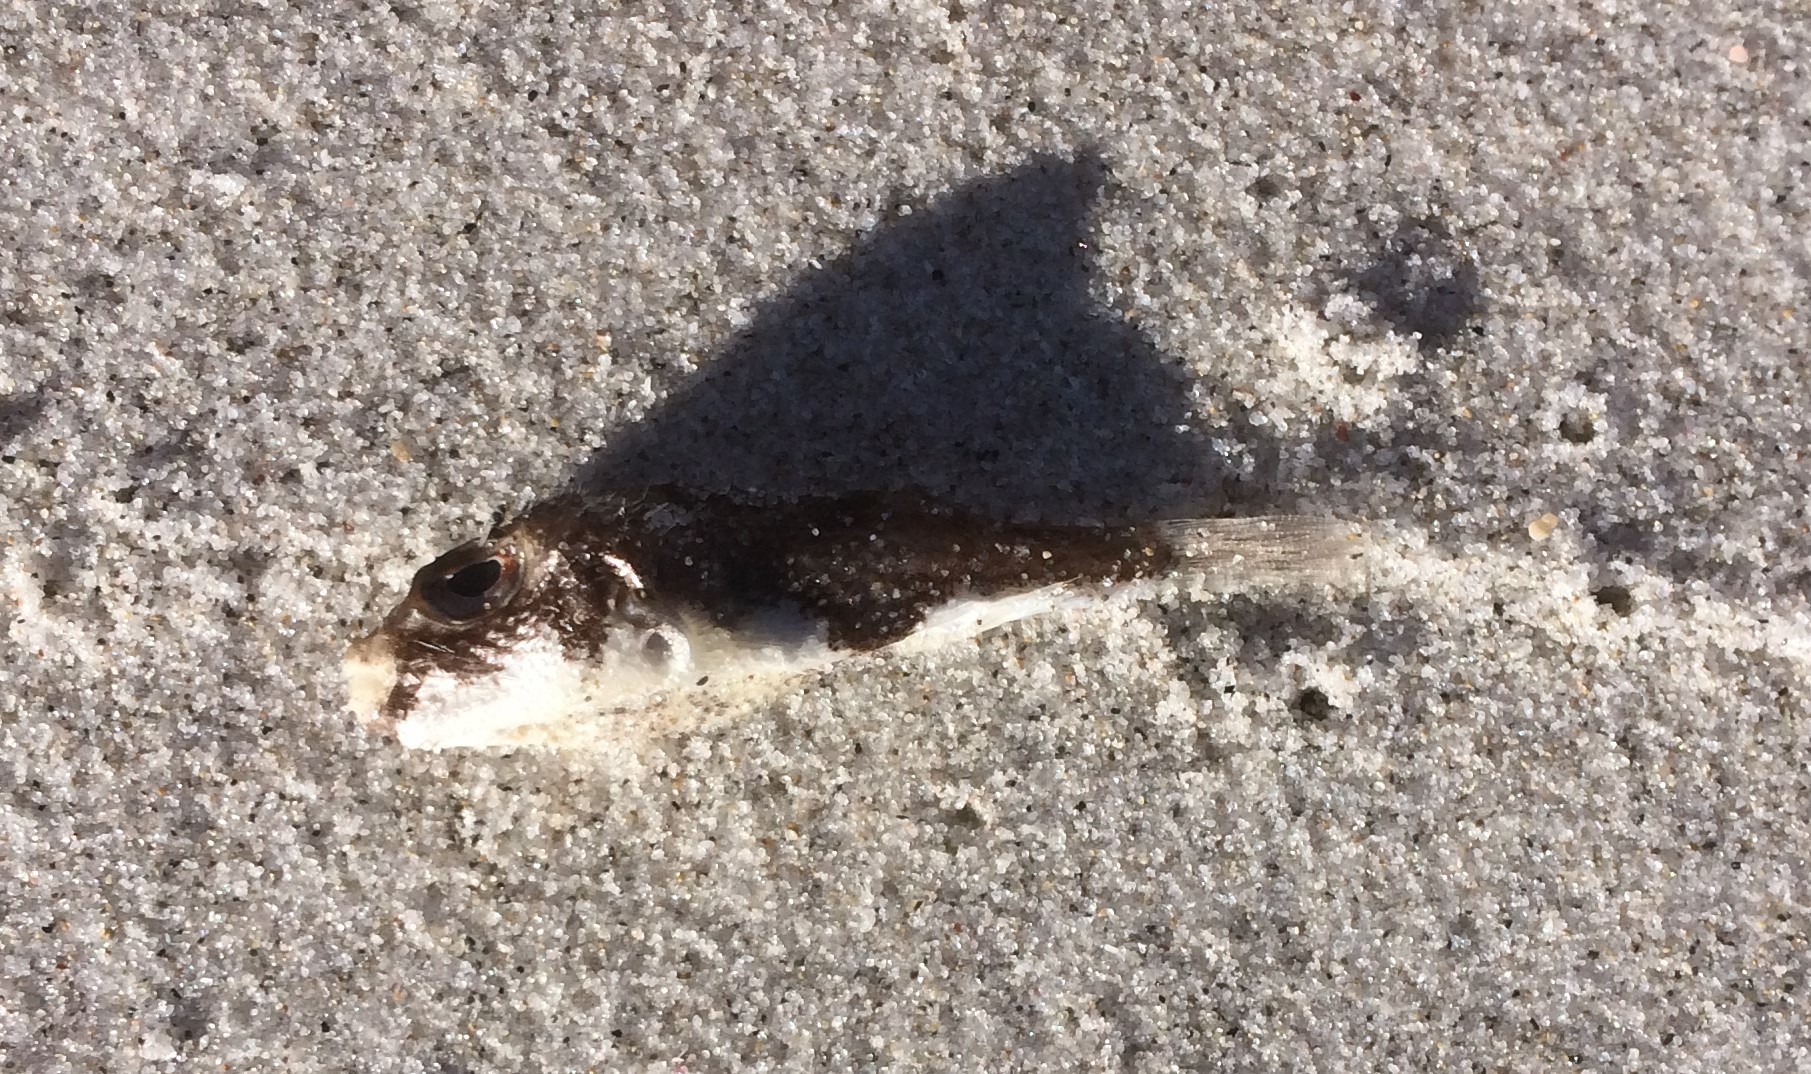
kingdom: Animalia
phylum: Chordata
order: Tetraodontiformes
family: Tetraodontidae
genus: Polyspina
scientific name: Polyspina piosae
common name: Orange-barred pufferfish
